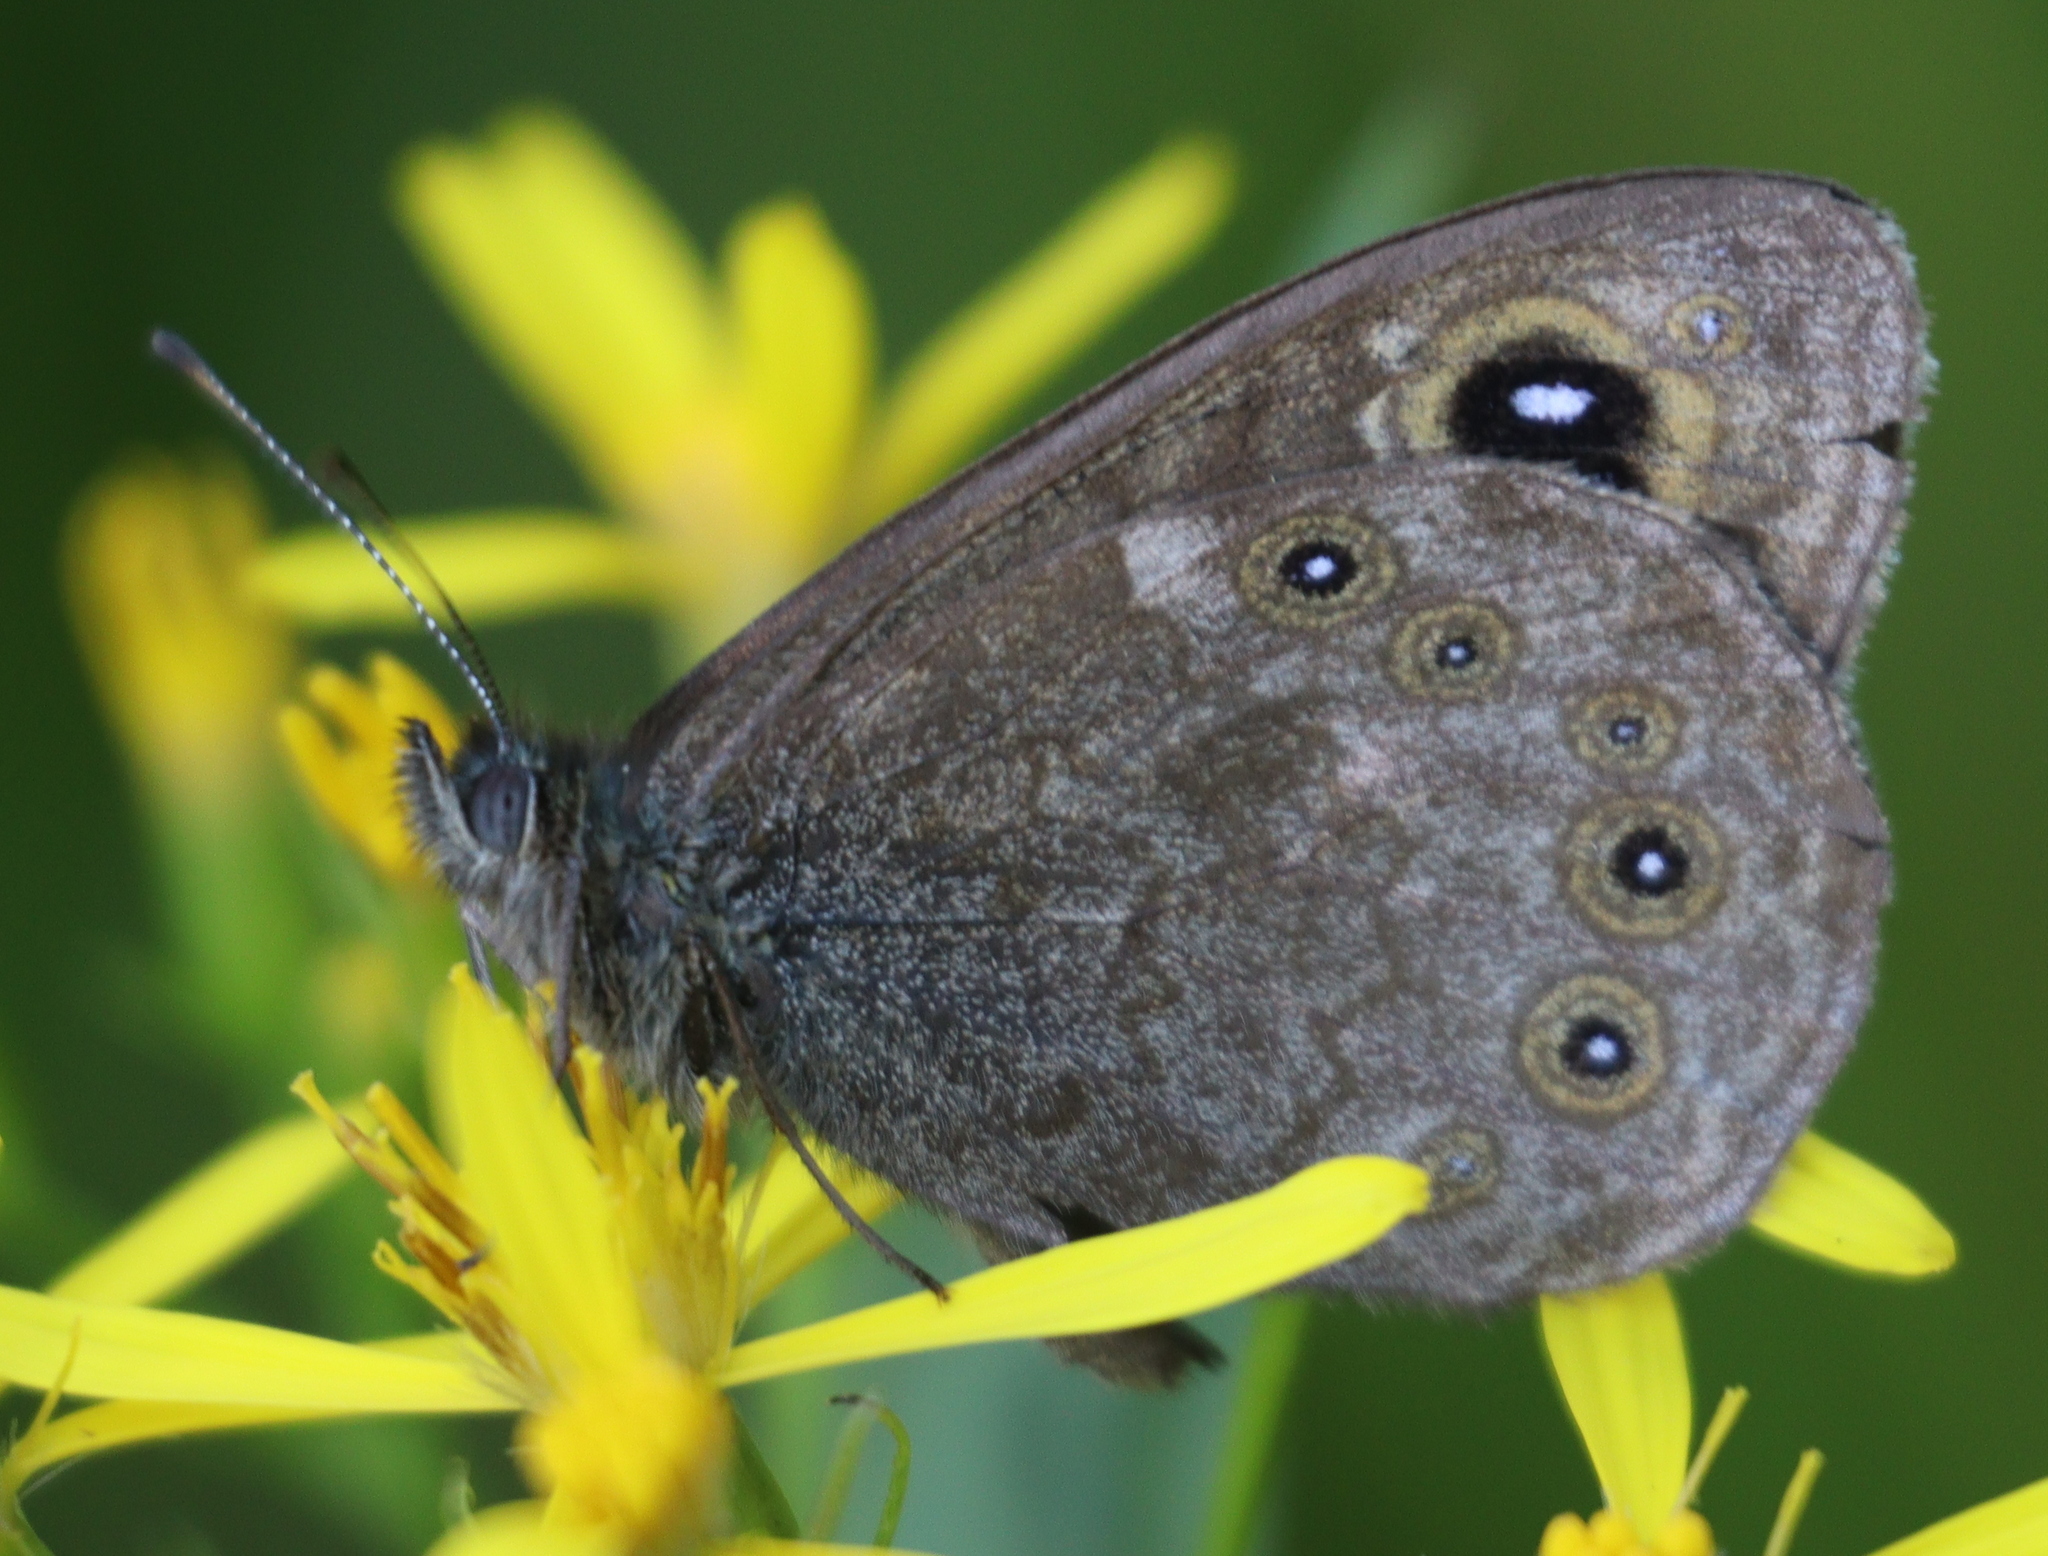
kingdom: Animalia
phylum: Arthropoda
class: Insecta
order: Lepidoptera
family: Nymphalidae
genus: Pararge
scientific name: Pararge Lasiommata maera
